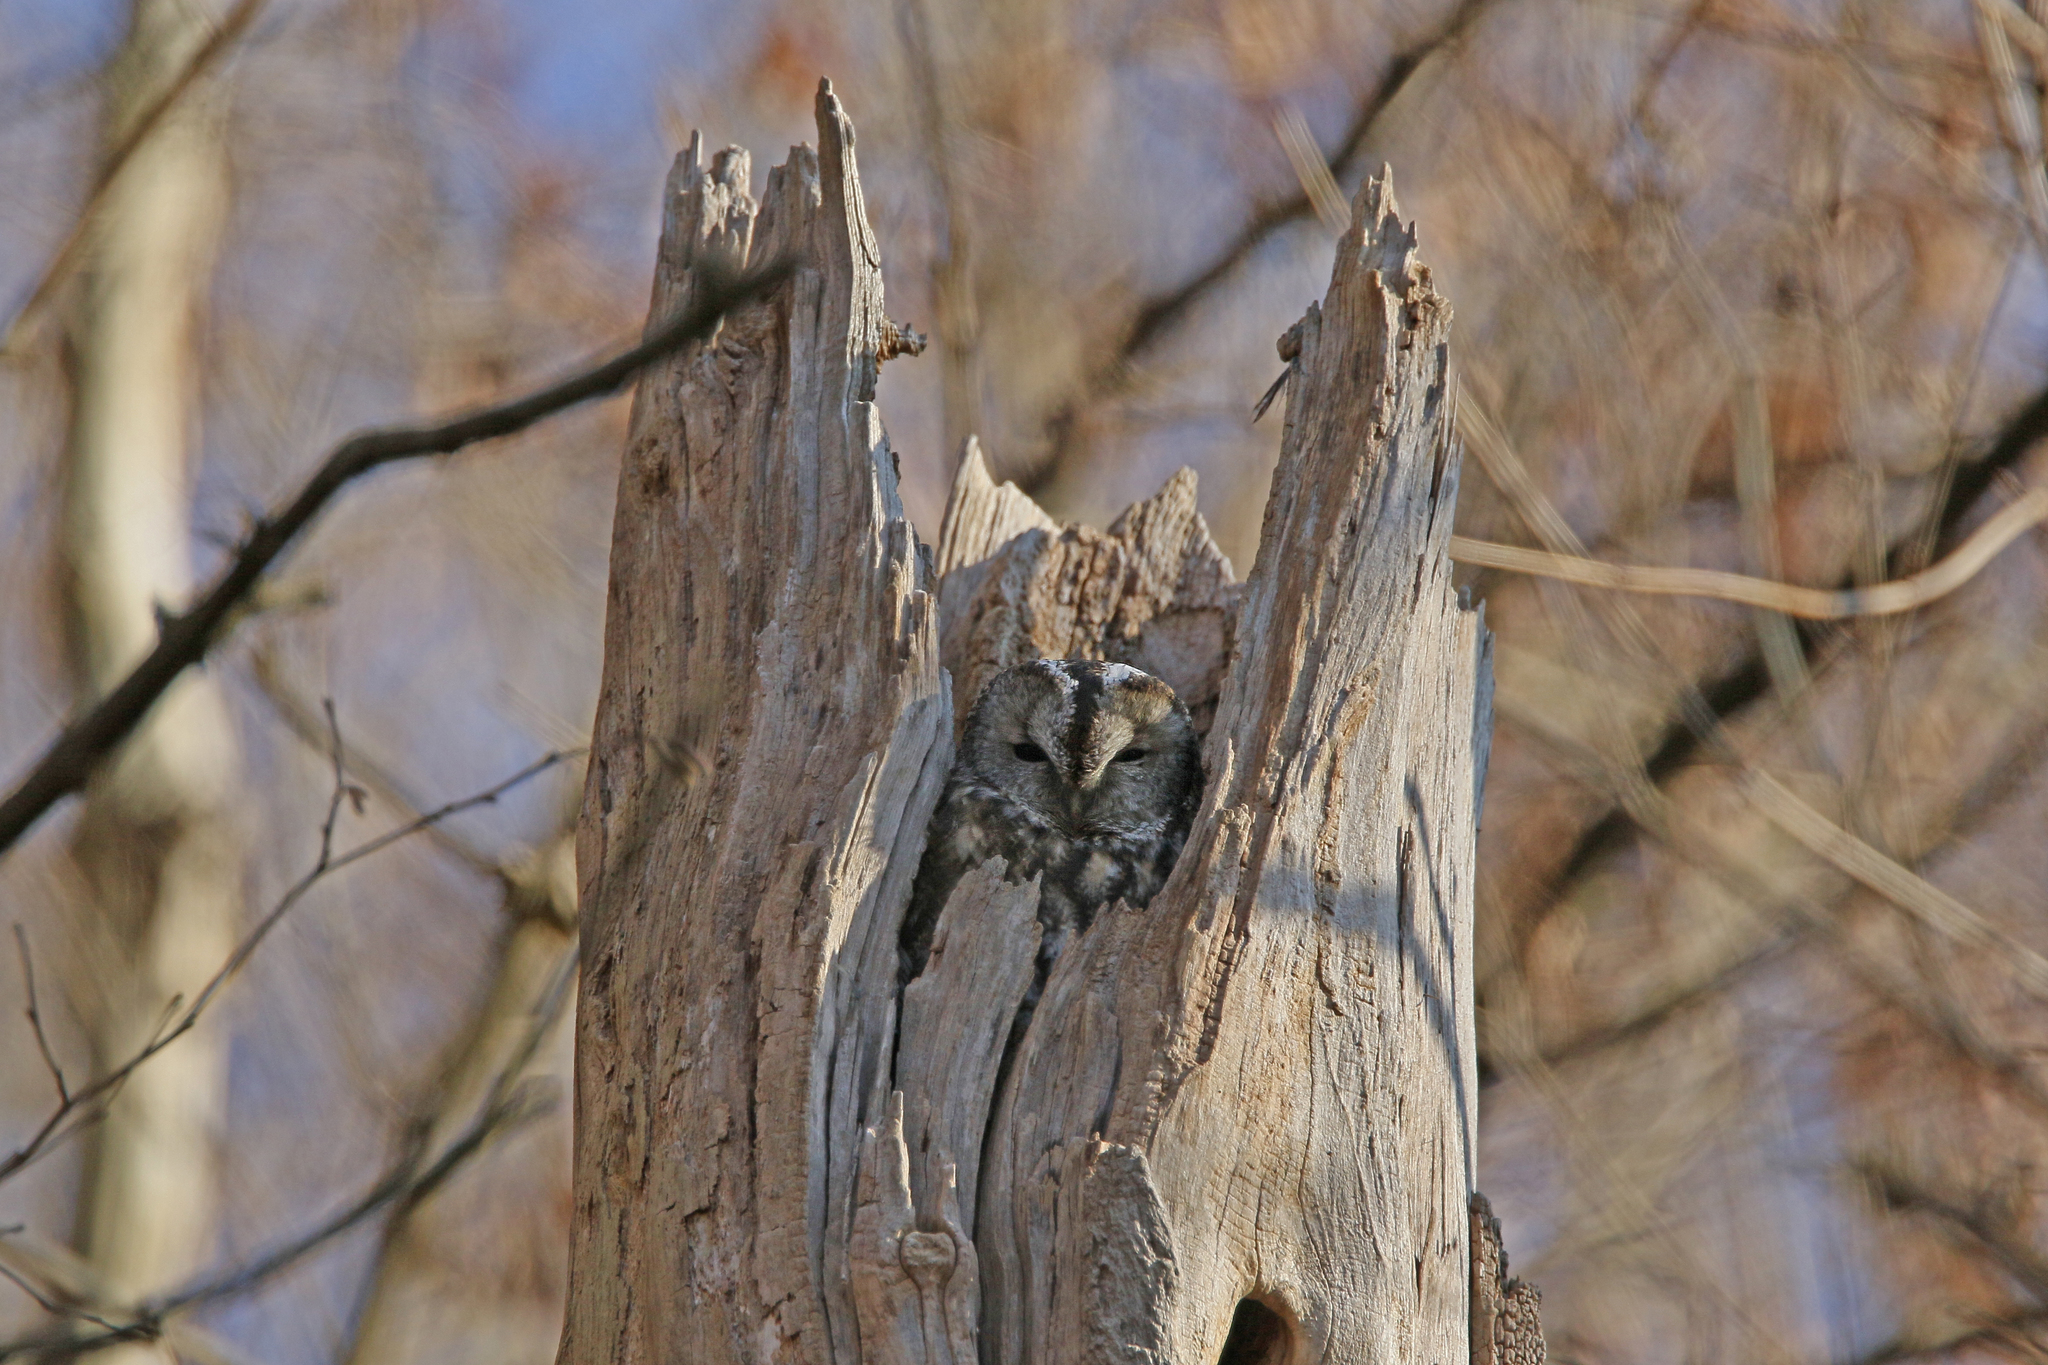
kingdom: Animalia
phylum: Chordata
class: Aves
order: Strigiformes
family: Strigidae
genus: Strix
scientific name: Strix aluco
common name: Tawny owl
